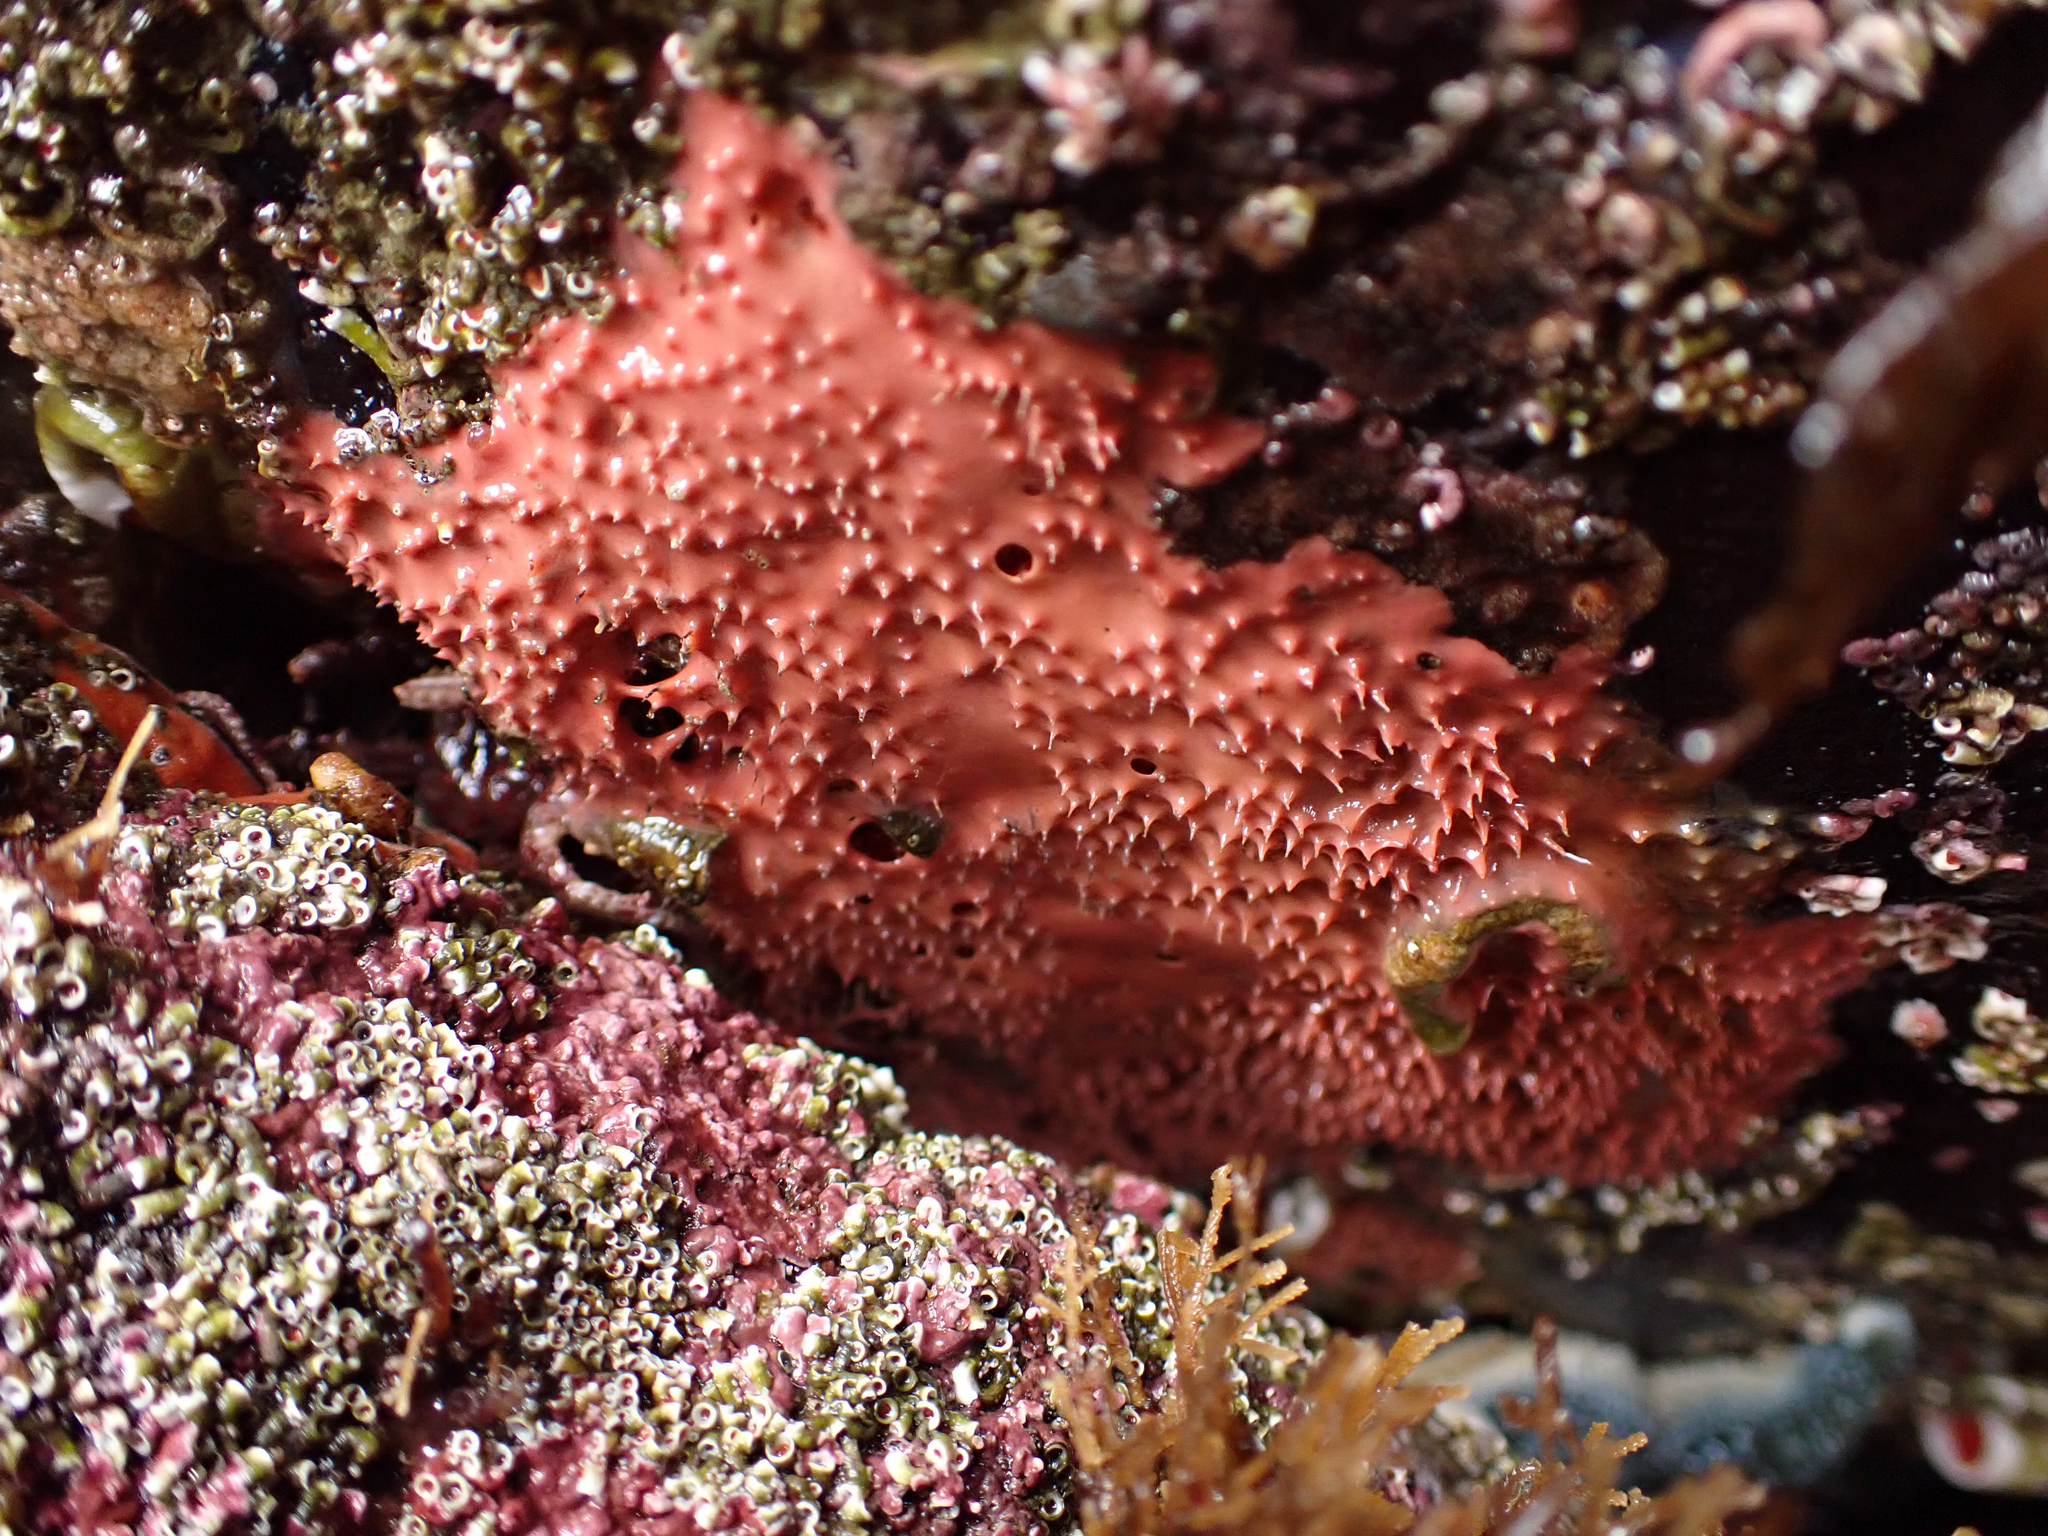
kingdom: Animalia
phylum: Porifera
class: Demospongiae
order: Dendroceratida
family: Darwinellidae
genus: Aplysilla
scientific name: Aplysilla glacialis
